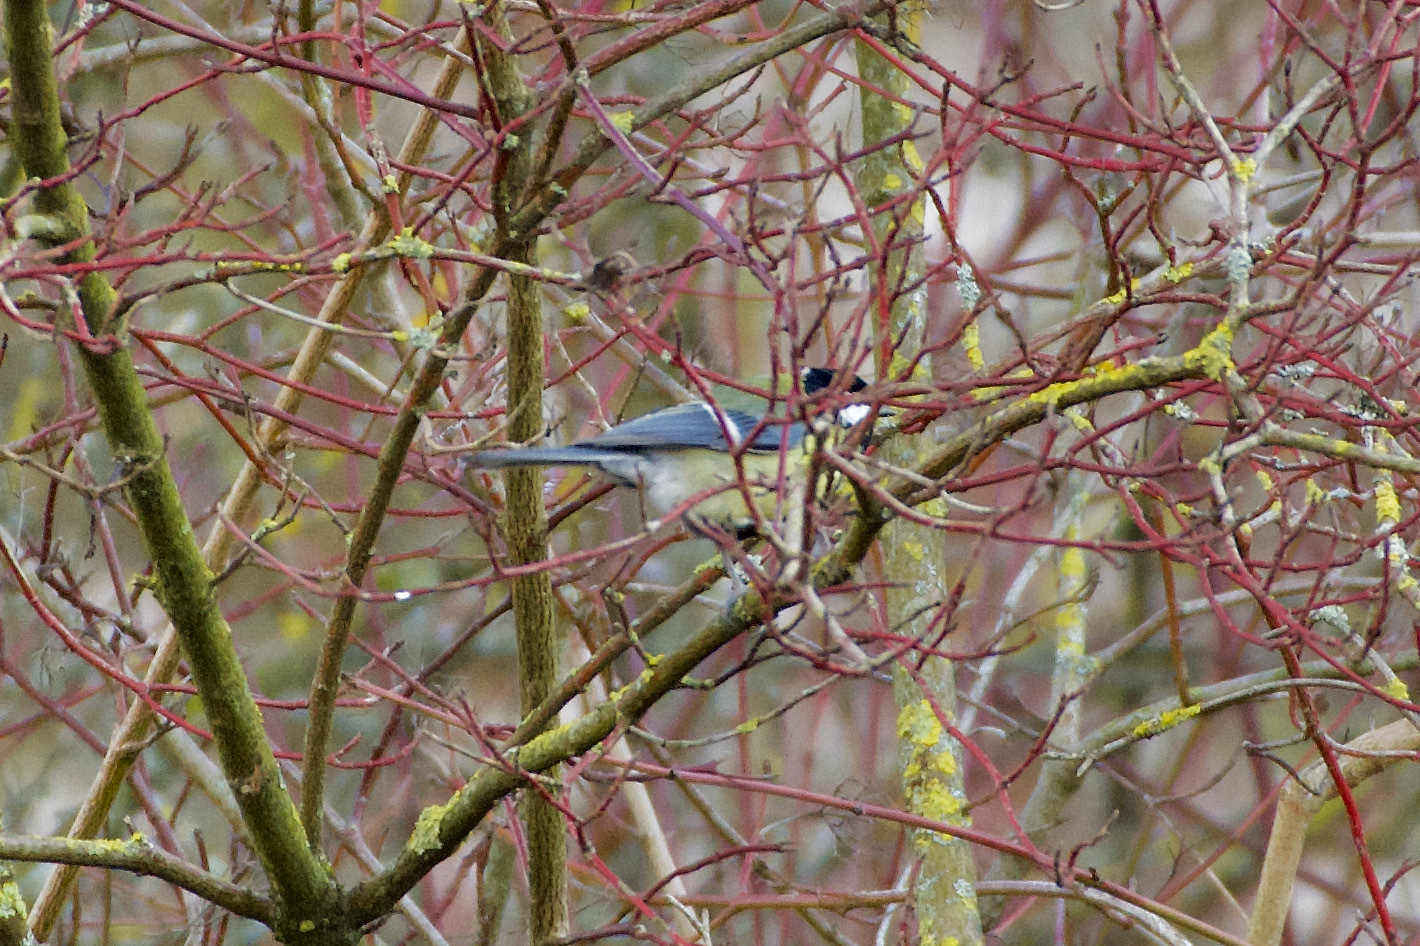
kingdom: Animalia
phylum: Chordata
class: Aves
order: Passeriformes
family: Paridae
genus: Parus
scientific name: Parus major
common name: Great tit
